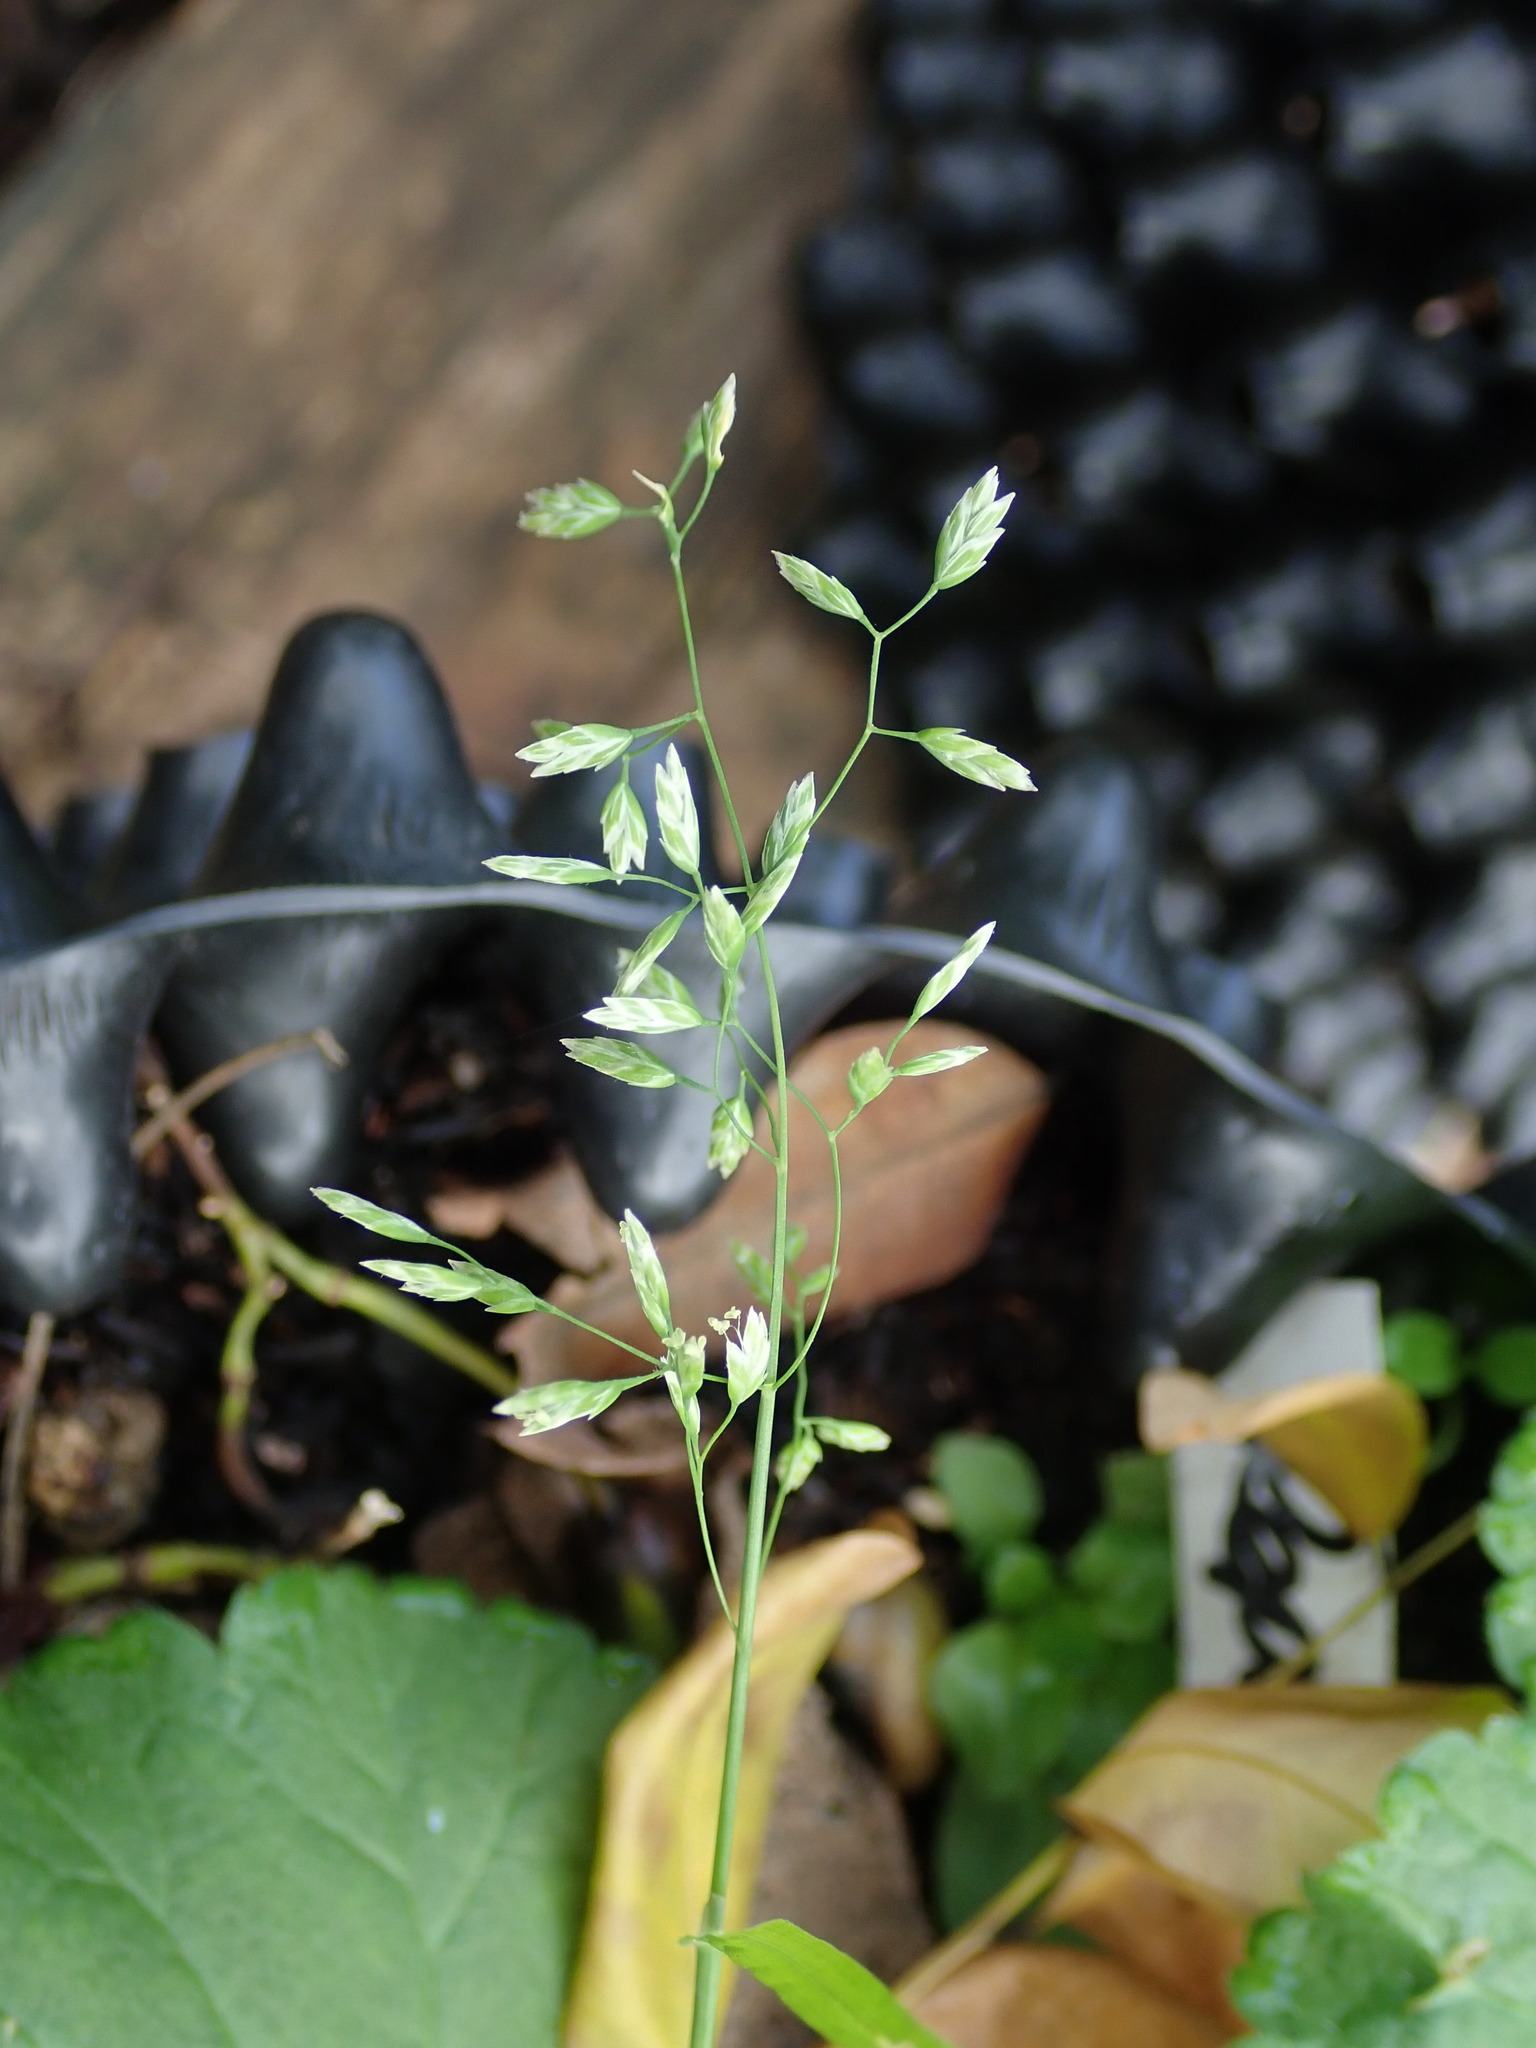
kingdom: Plantae
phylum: Tracheophyta
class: Liliopsida
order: Poales
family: Poaceae
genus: Poa
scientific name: Poa annua
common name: Annual bluegrass
